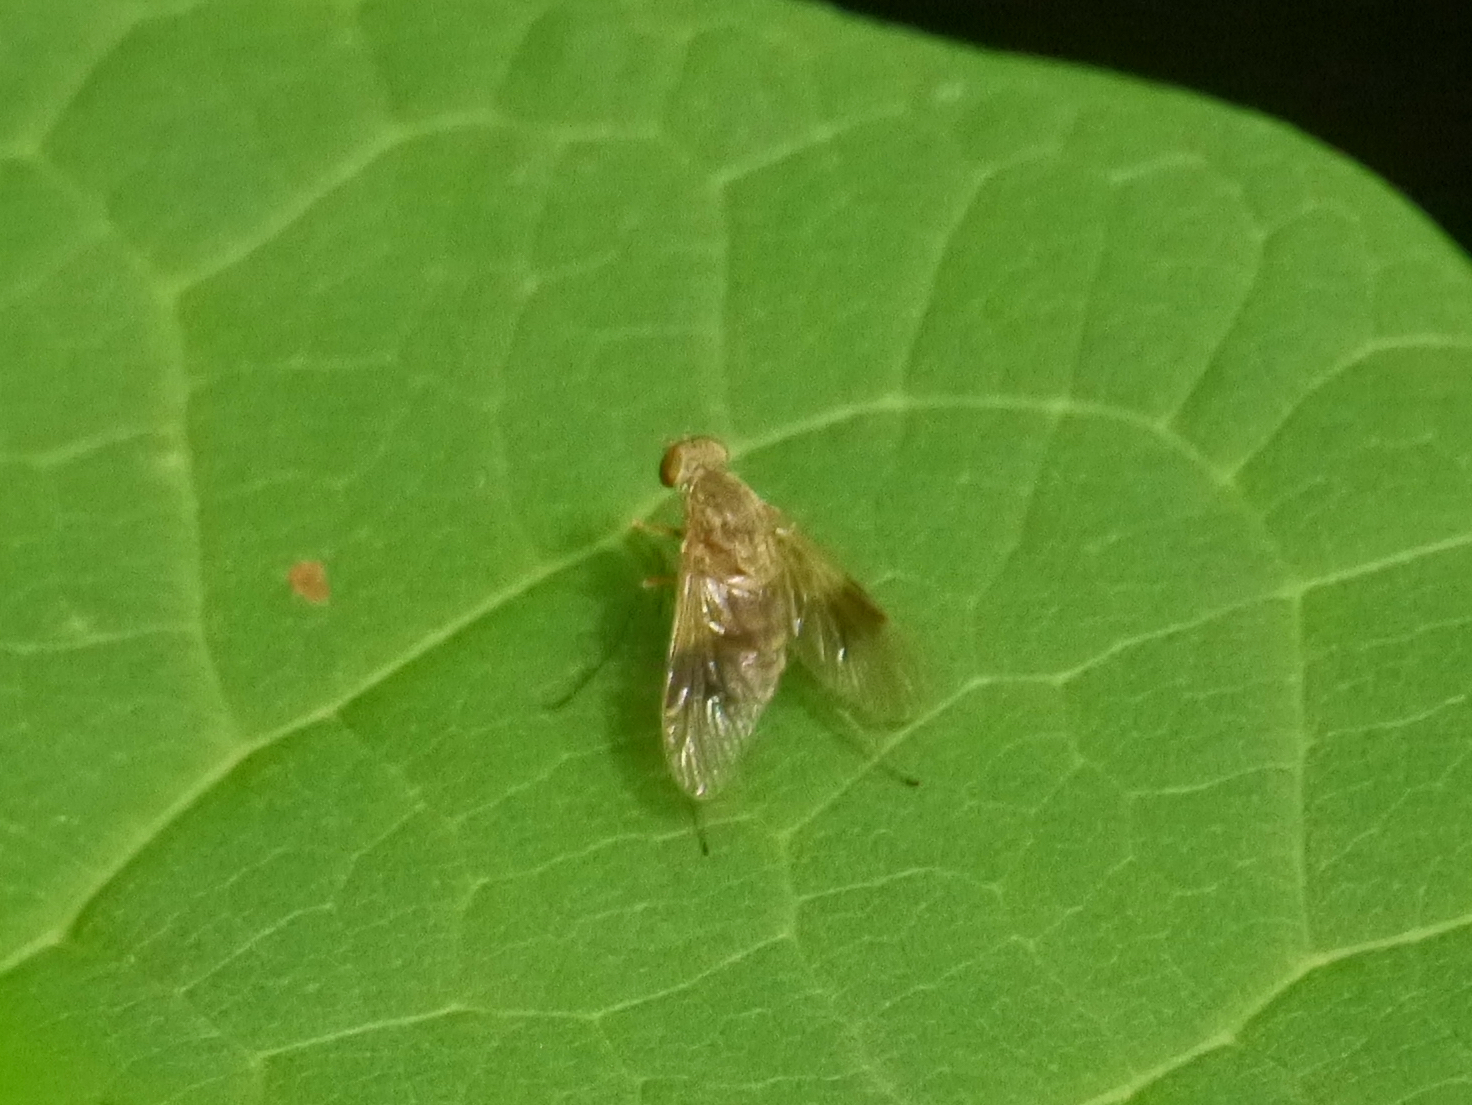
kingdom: Animalia
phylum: Arthropoda
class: Insecta
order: Diptera
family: Rhagionidae
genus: Chrysopilus
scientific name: Chrysopilus quadratus
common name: Quadrate snipe fly
